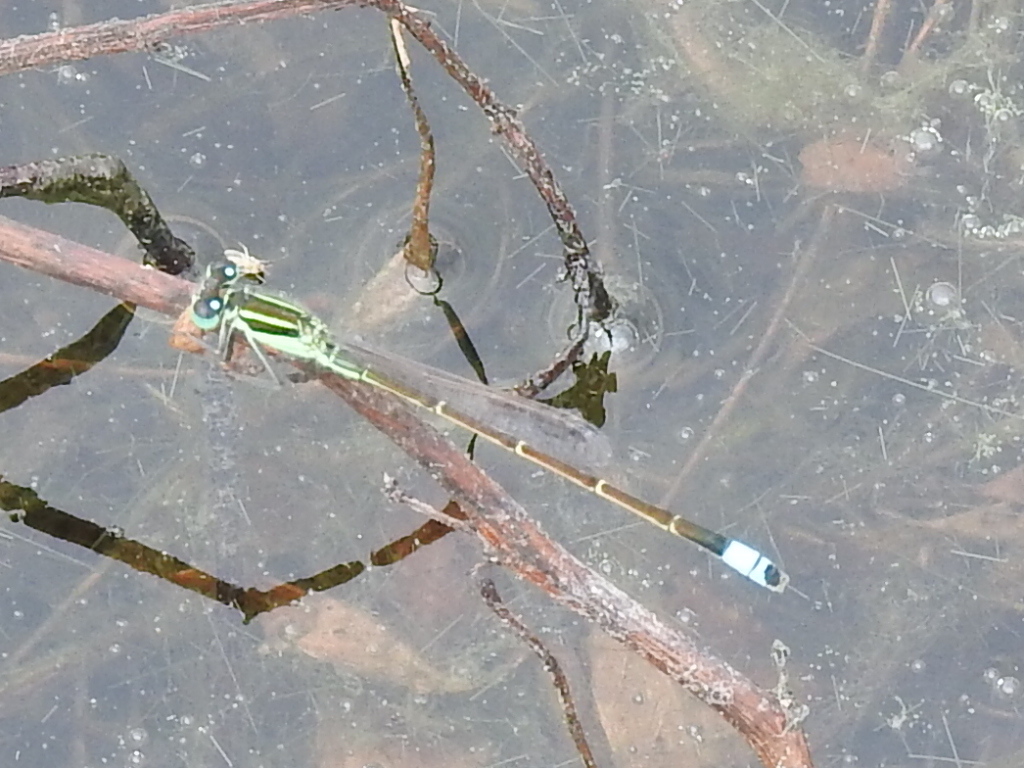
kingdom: Animalia
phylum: Arthropoda
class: Insecta
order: Odonata
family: Coenagrionidae
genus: Ischnura
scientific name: Ischnura ramburii
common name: Rambur's forktail
